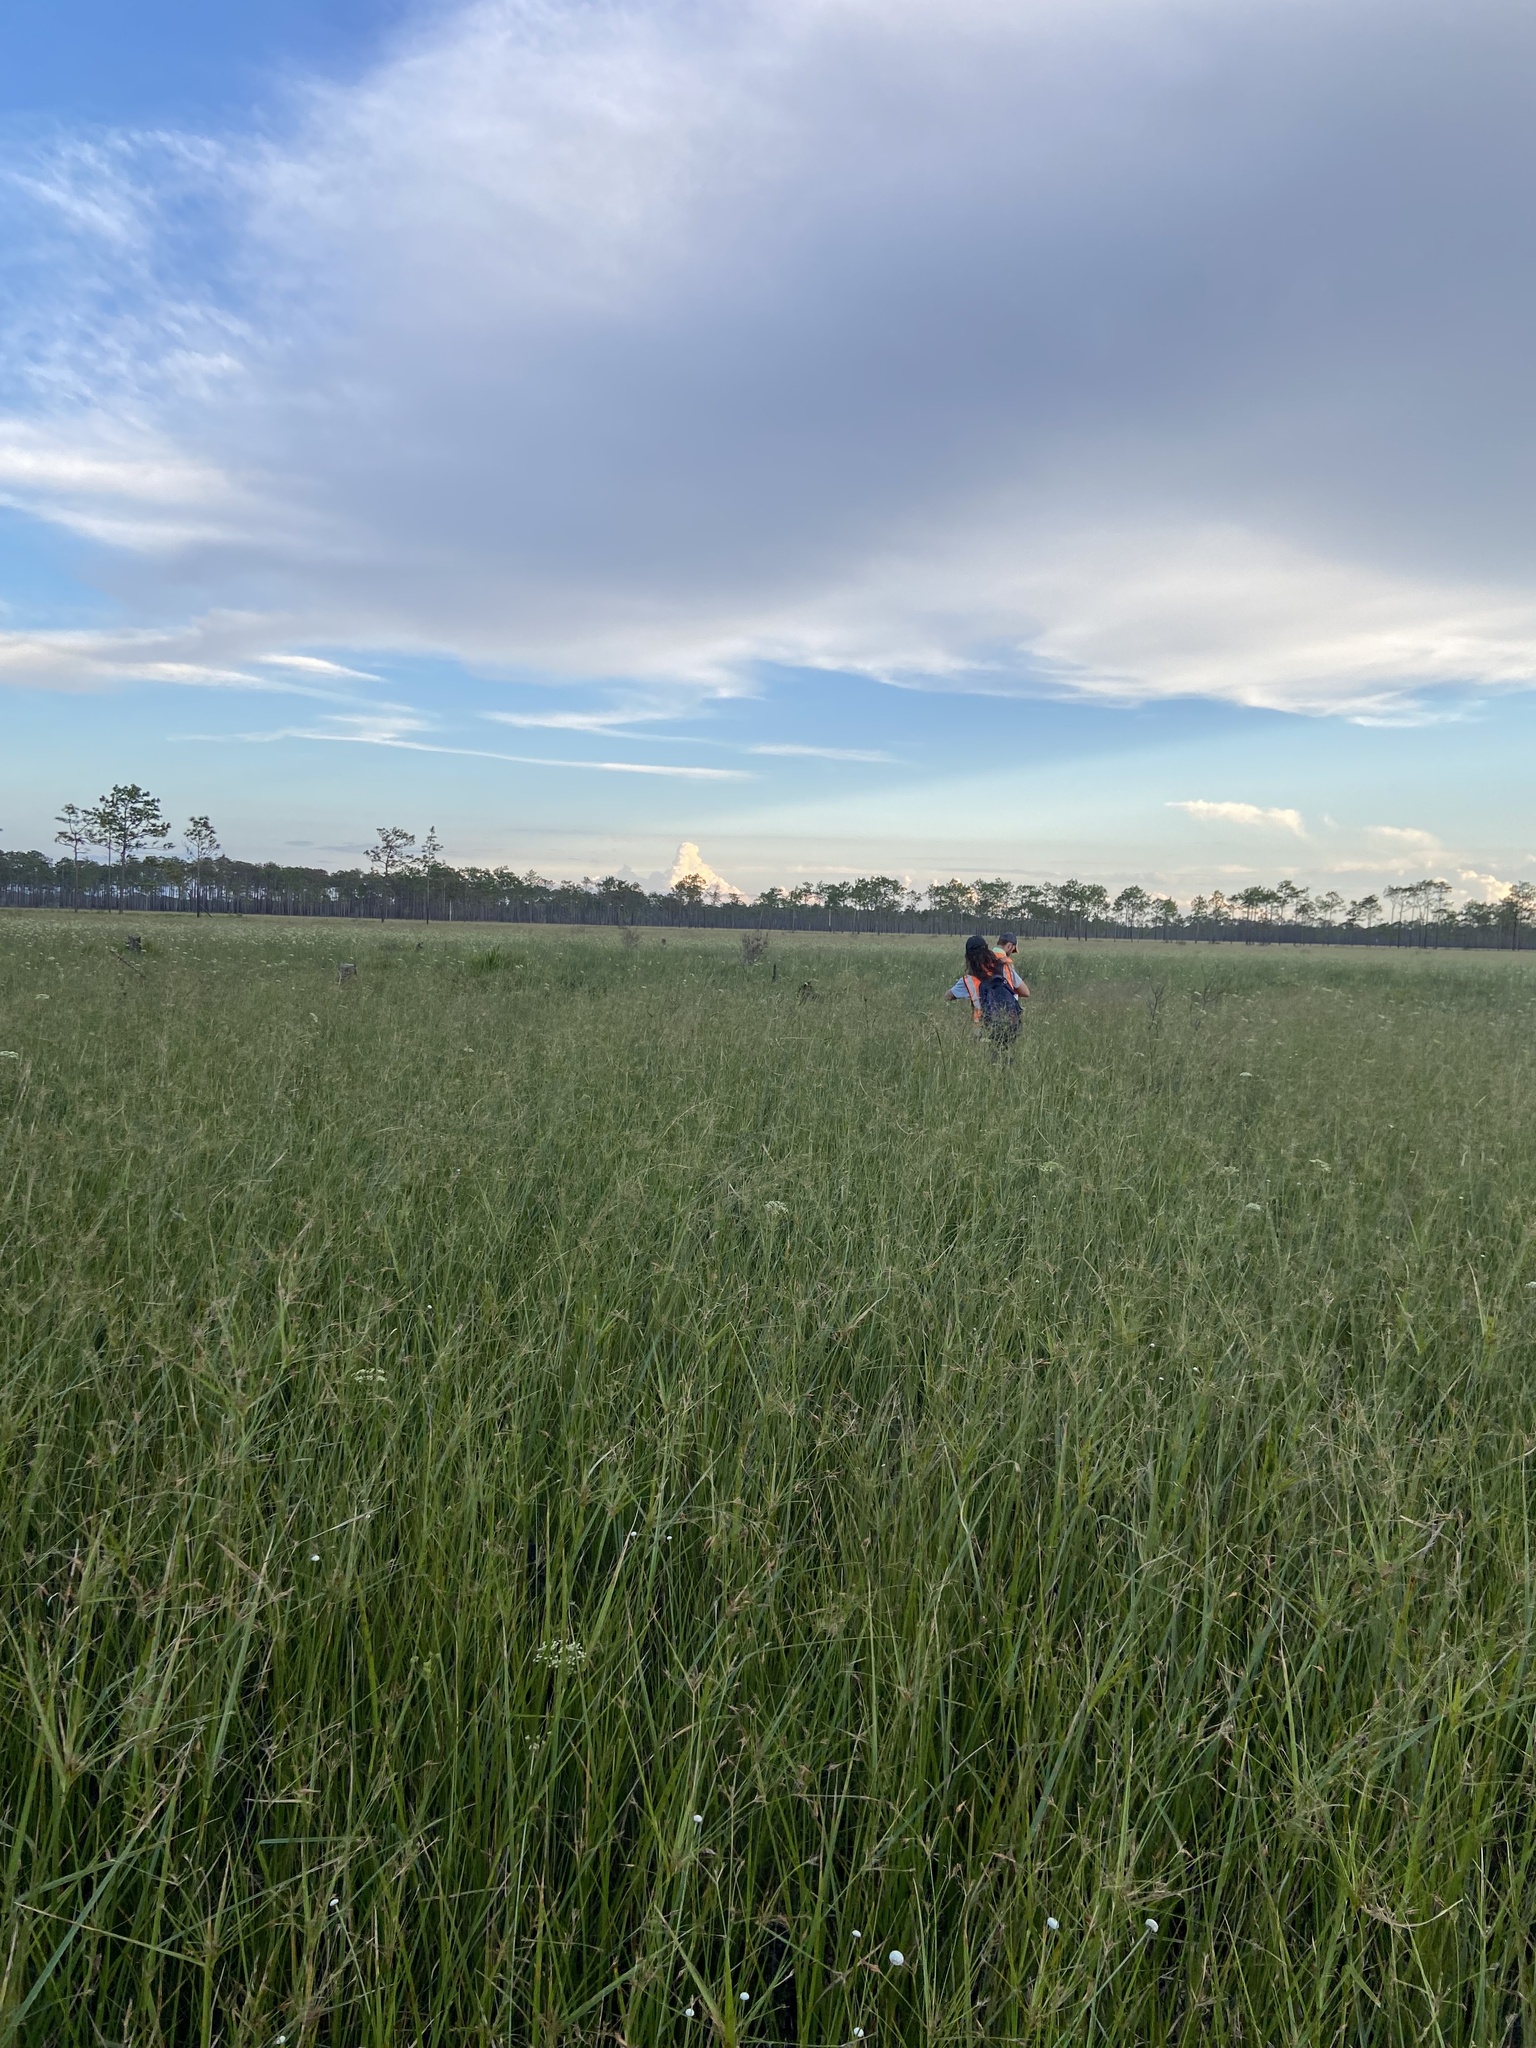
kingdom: Plantae
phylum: Tracheophyta
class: Liliopsida
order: Poales
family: Cyperaceae
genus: Rhynchospora
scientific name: Rhynchospora inundata
